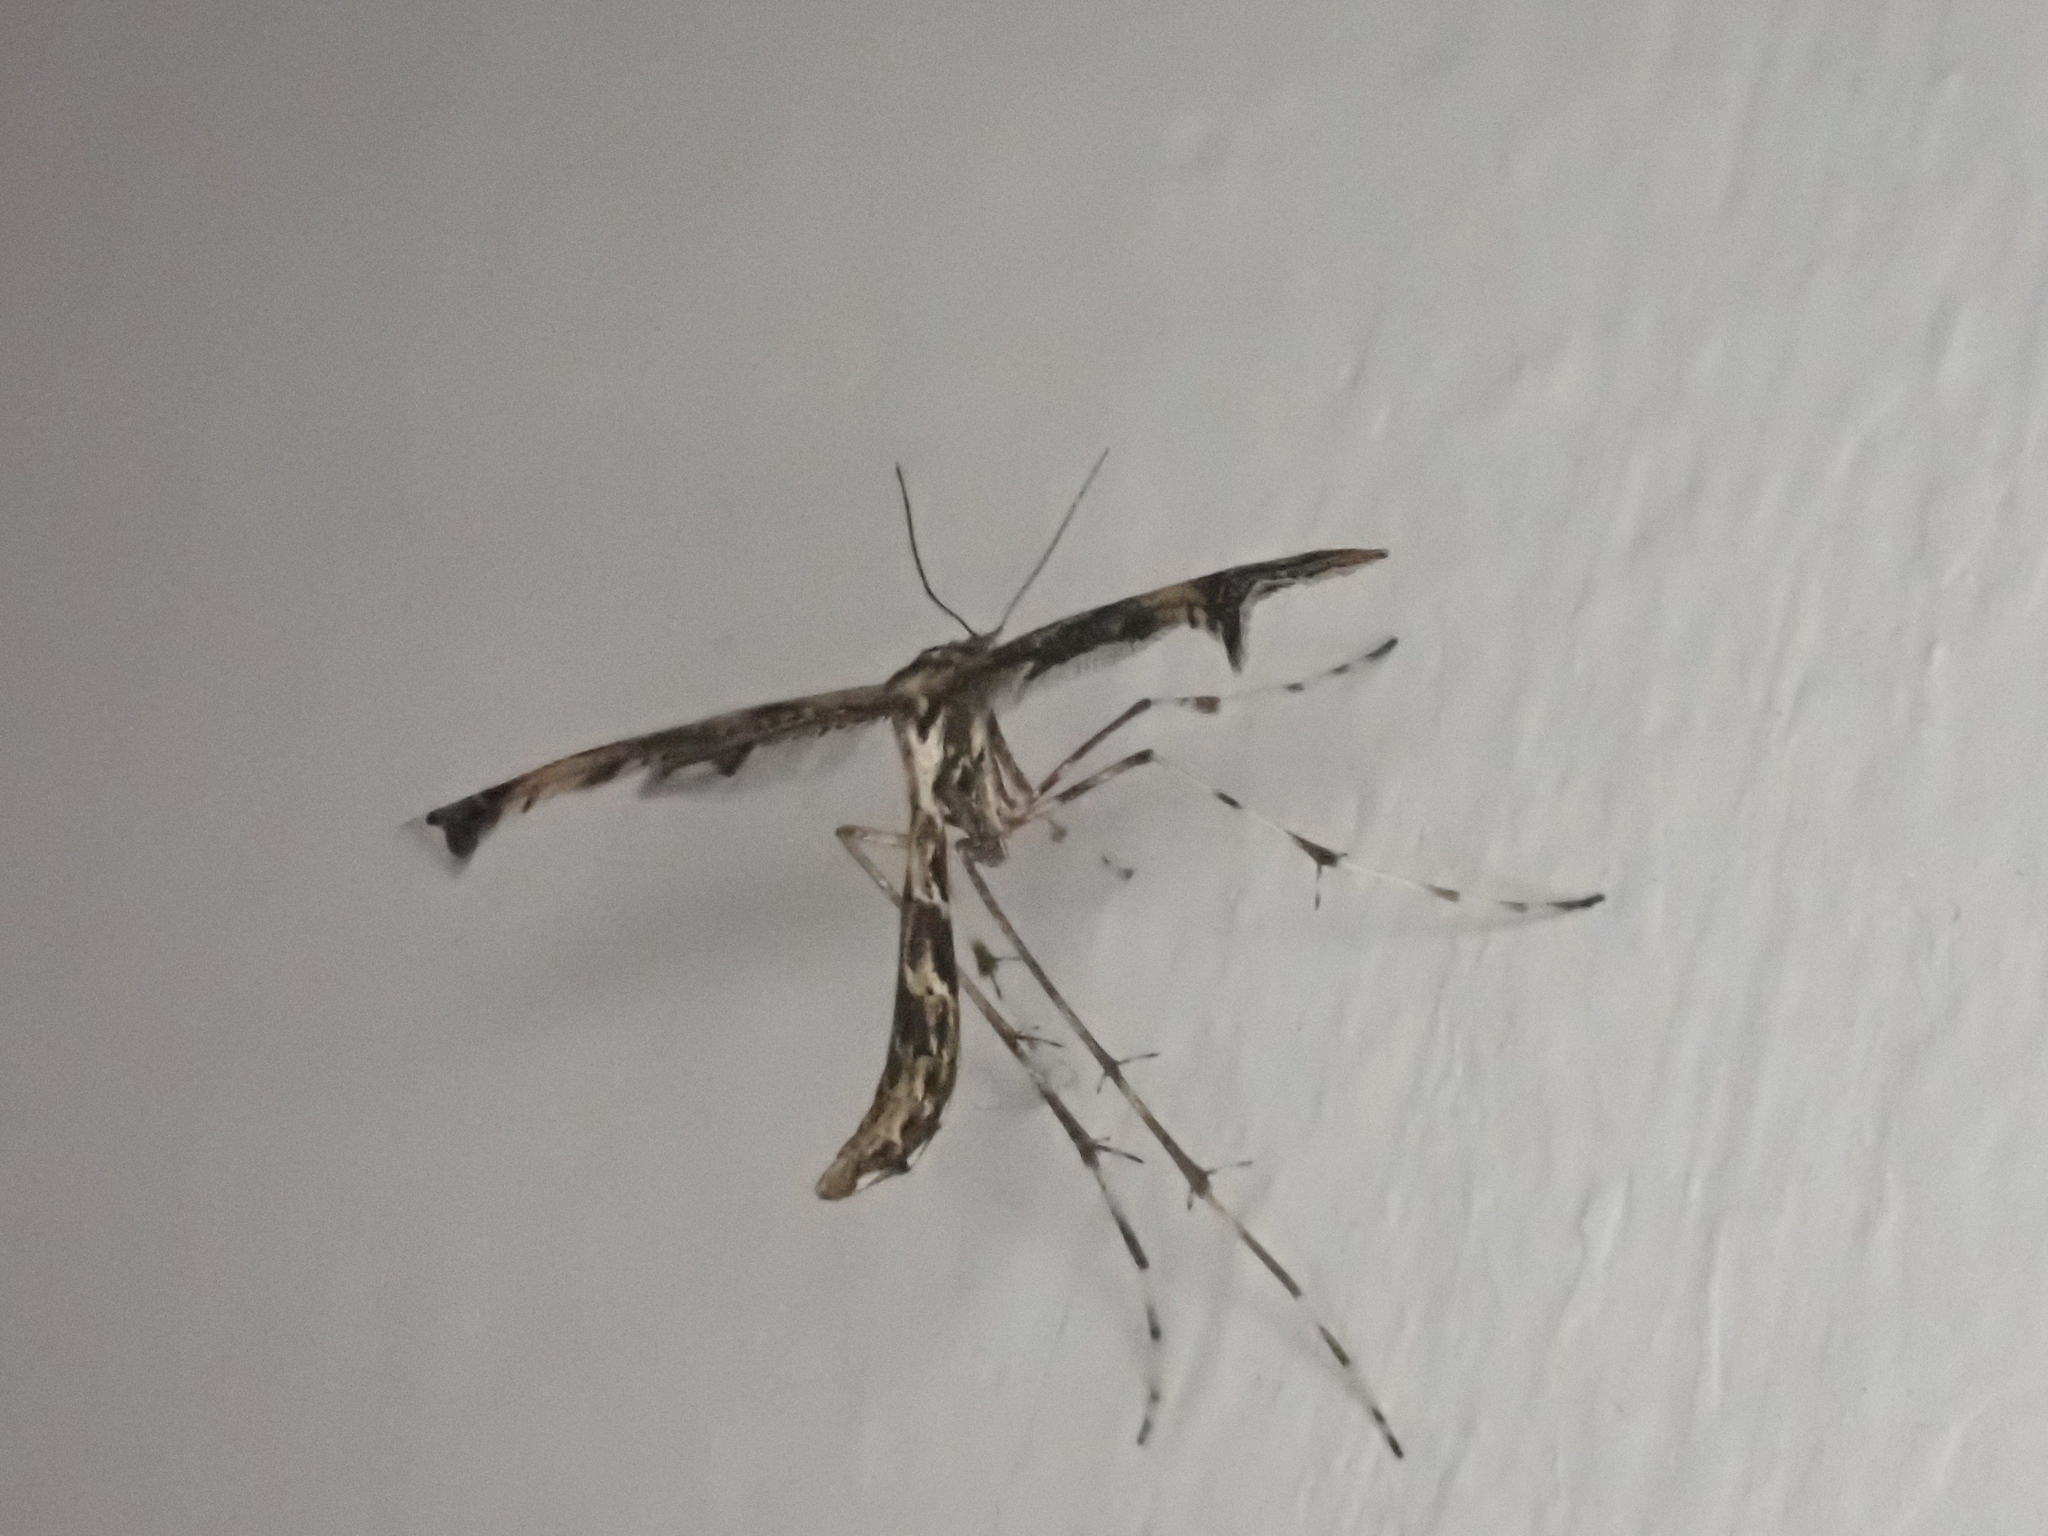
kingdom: Animalia
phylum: Arthropoda
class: Insecta
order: Lepidoptera
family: Pterophoridae
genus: Amblyptilia
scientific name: Amblyptilia acanthadactyla
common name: Beautiful plume
